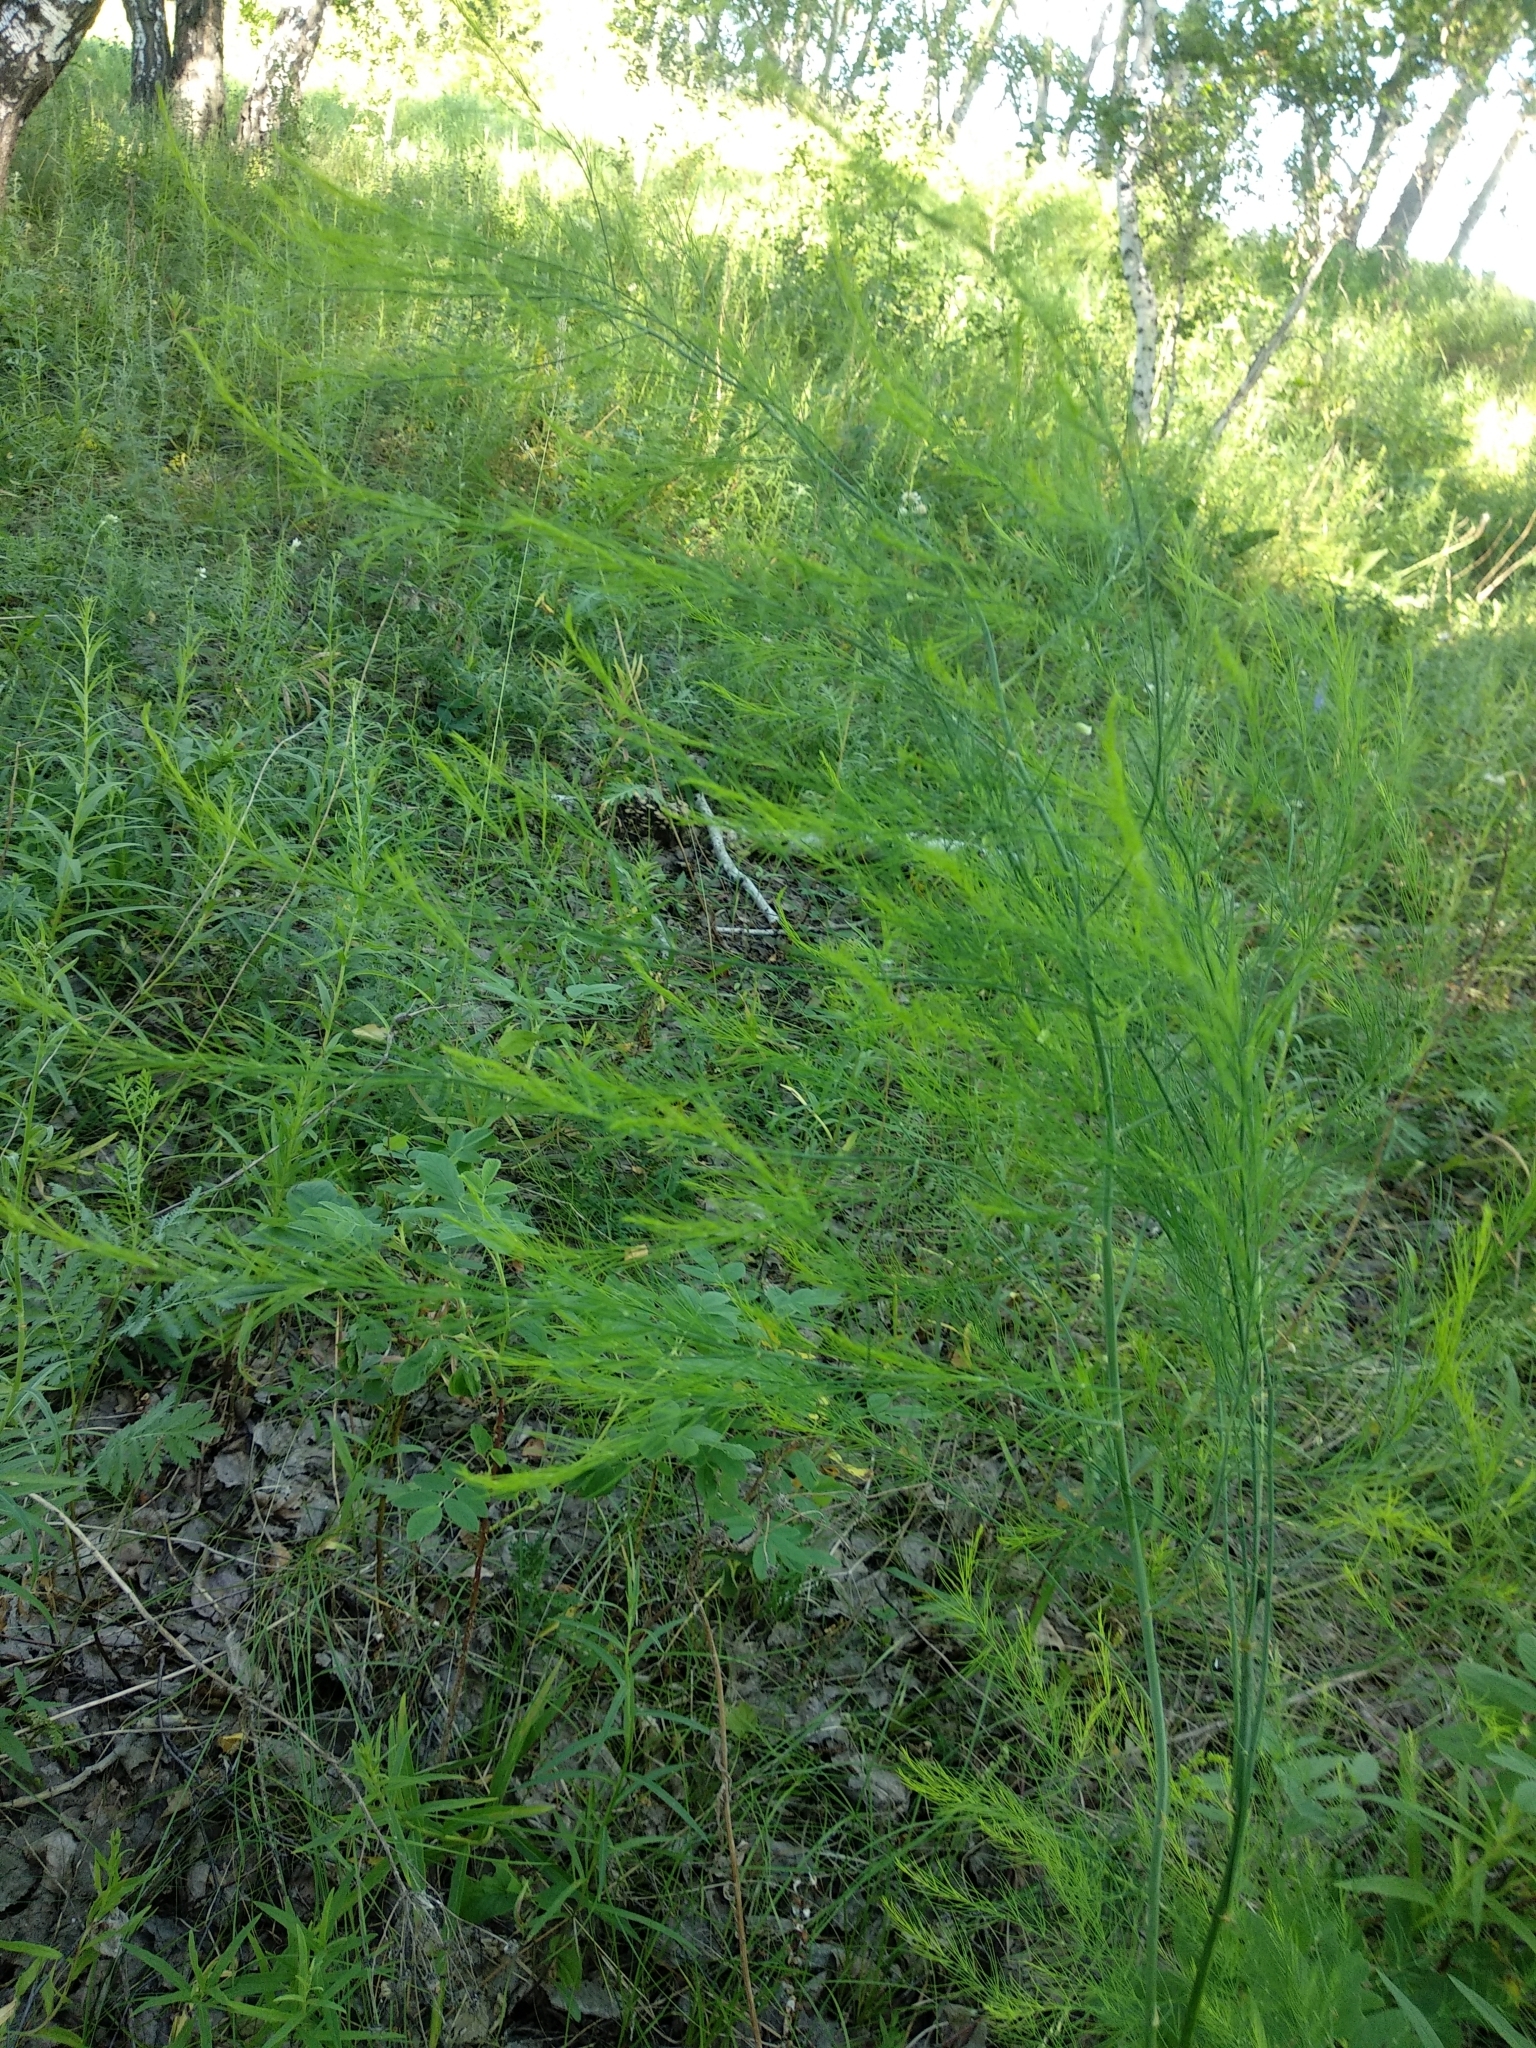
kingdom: Plantae
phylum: Tracheophyta
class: Liliopsida
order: Asparagales
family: Asparagaceae
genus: Asparagus
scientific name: Asparagus officinalis
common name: Garden asparagus
